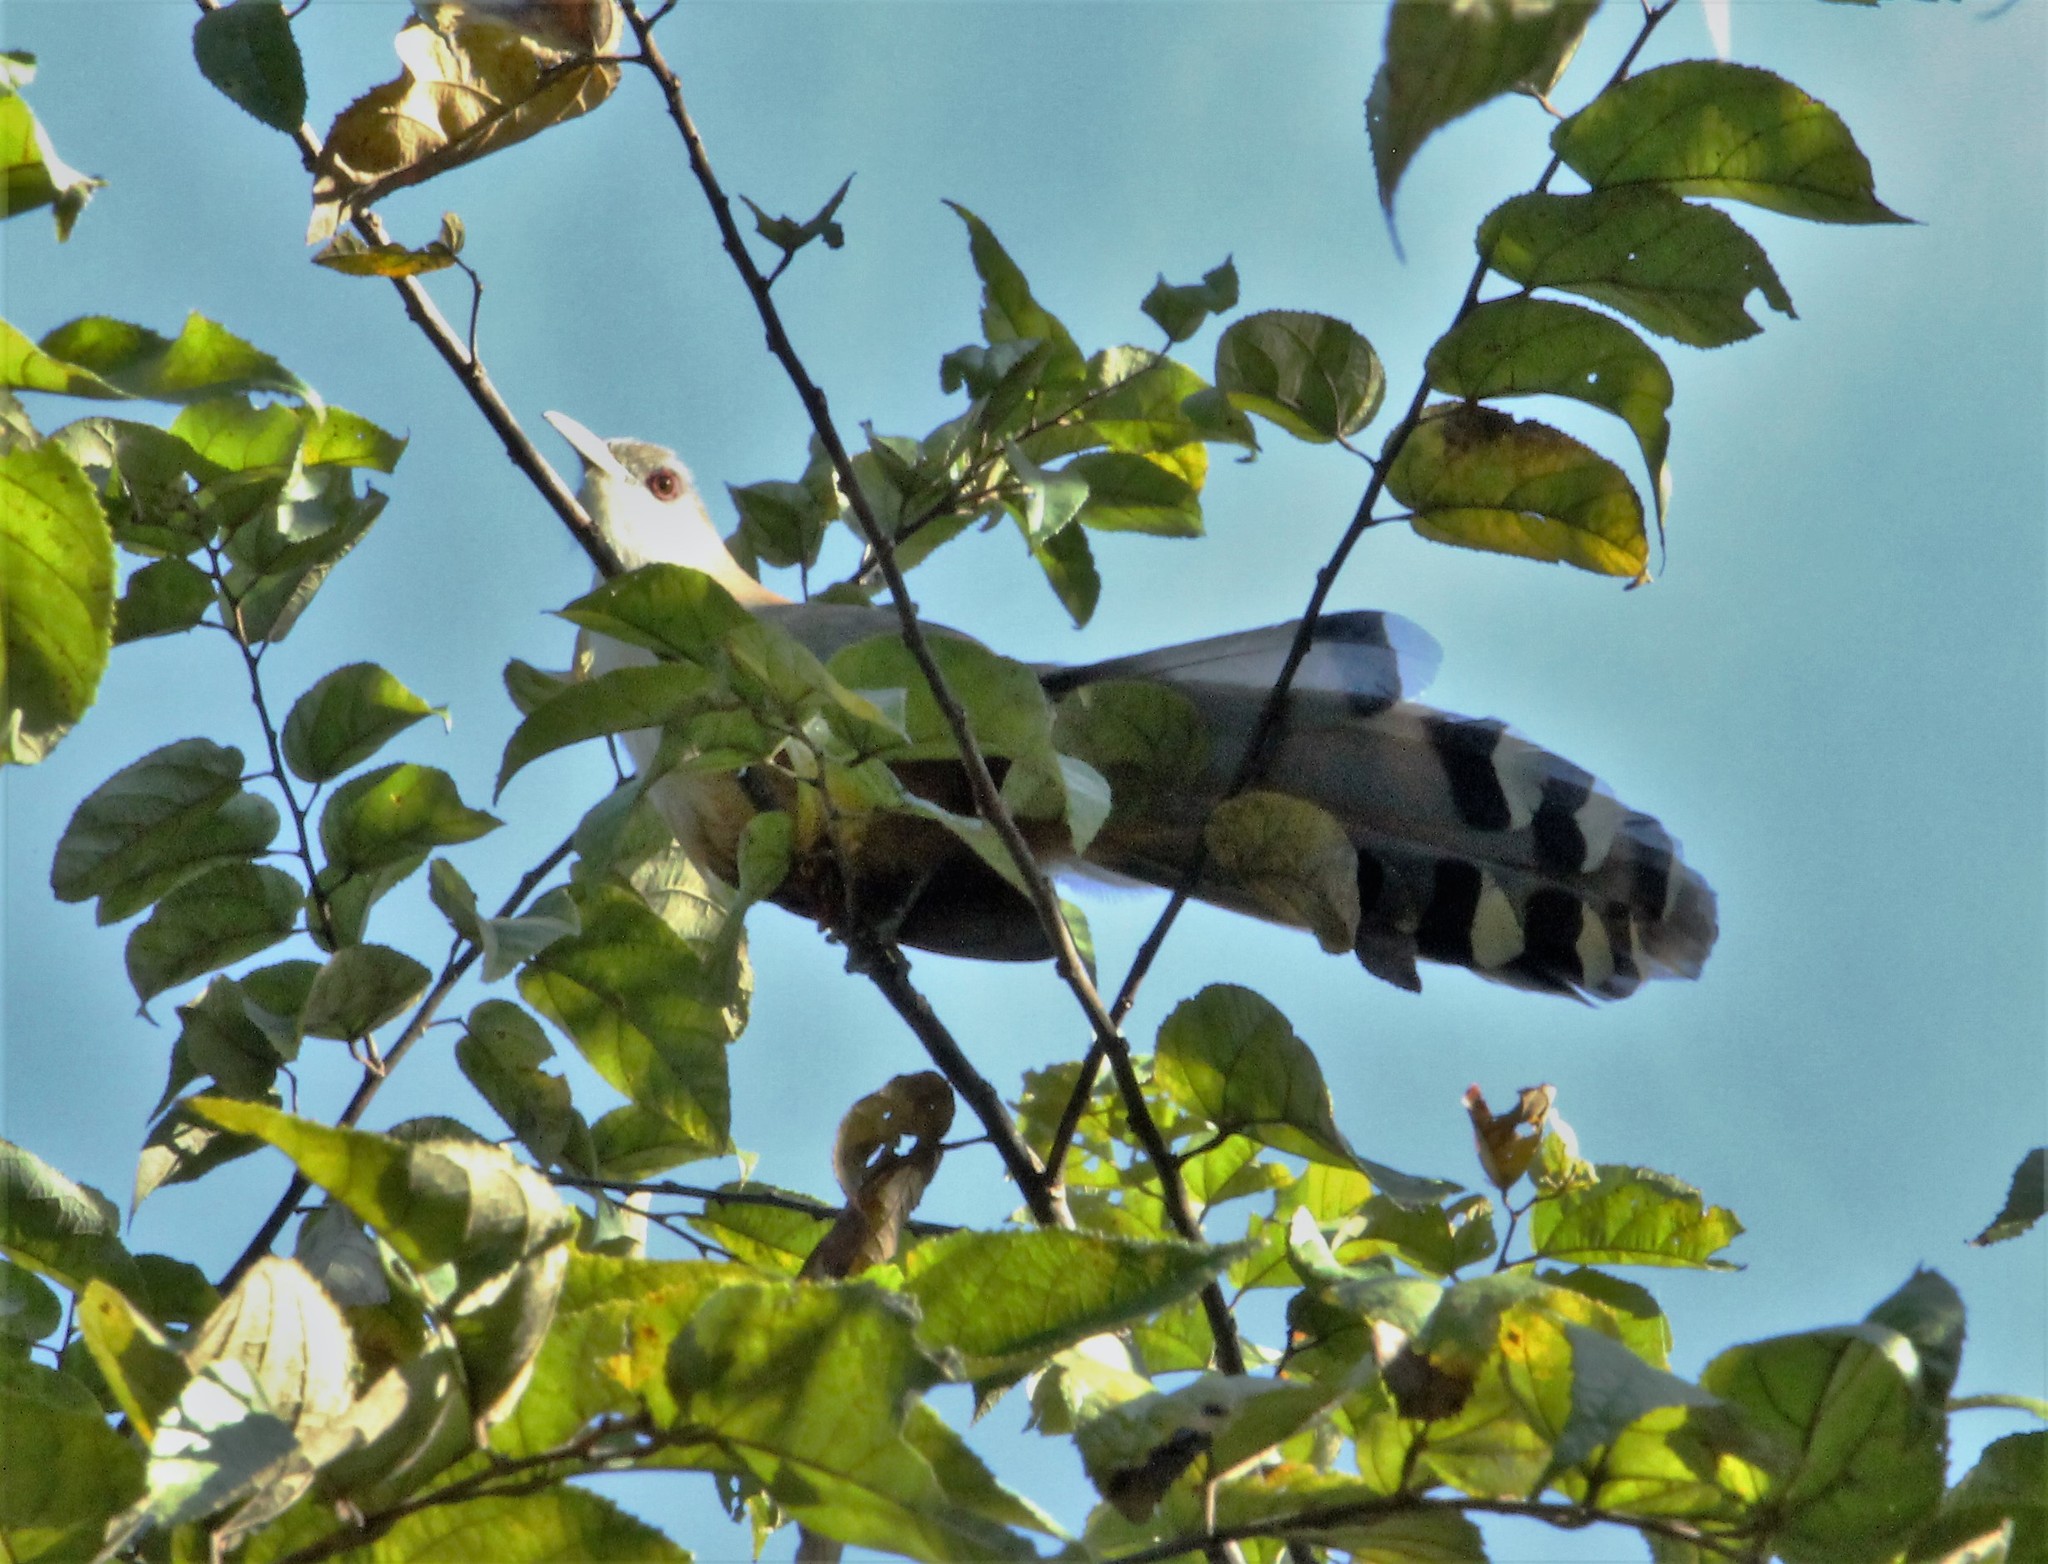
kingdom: Animalia
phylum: Chordata
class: Aves
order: Cuculiformes
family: Cuculidae
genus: Saurothera
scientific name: Saurothera merlini
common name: Great lizard-cuckoo
